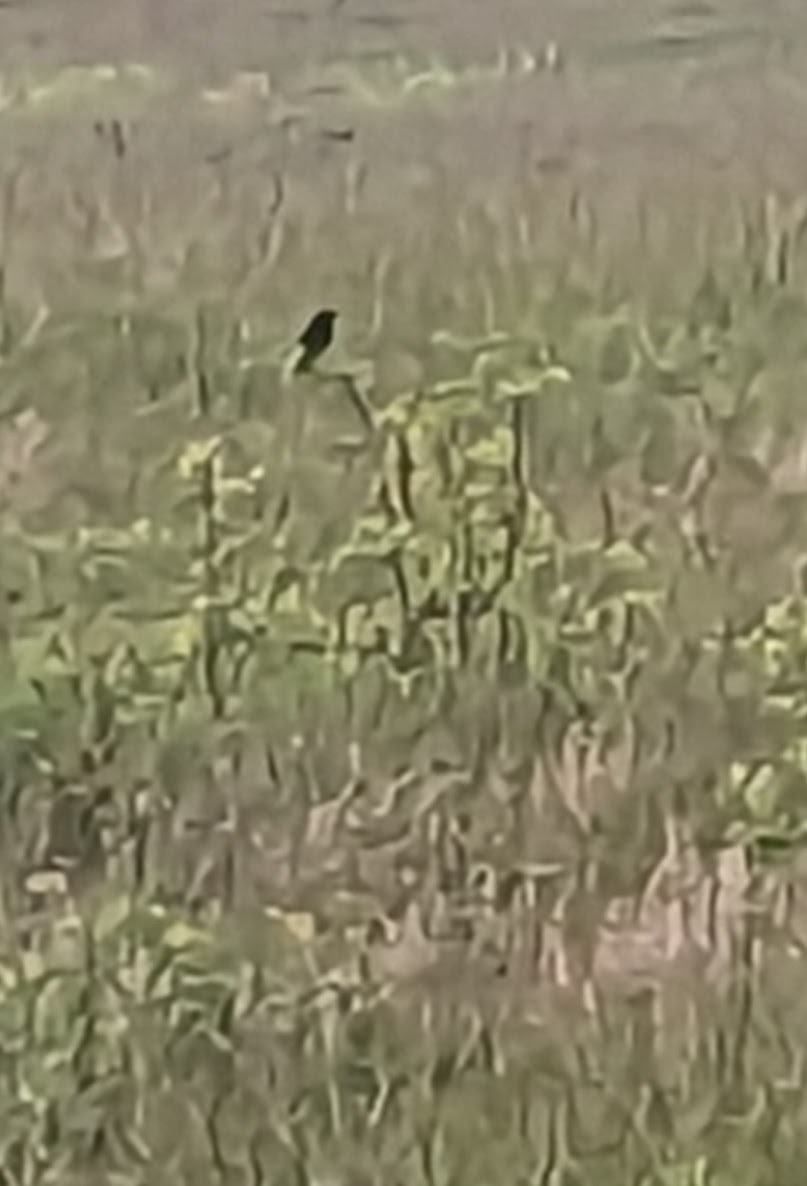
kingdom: Animalia
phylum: Chordata
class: Aves
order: Passeriformes
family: Icteridae
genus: Agelaius
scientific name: Agelaius phoeniceus
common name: Red-winged blackbird
